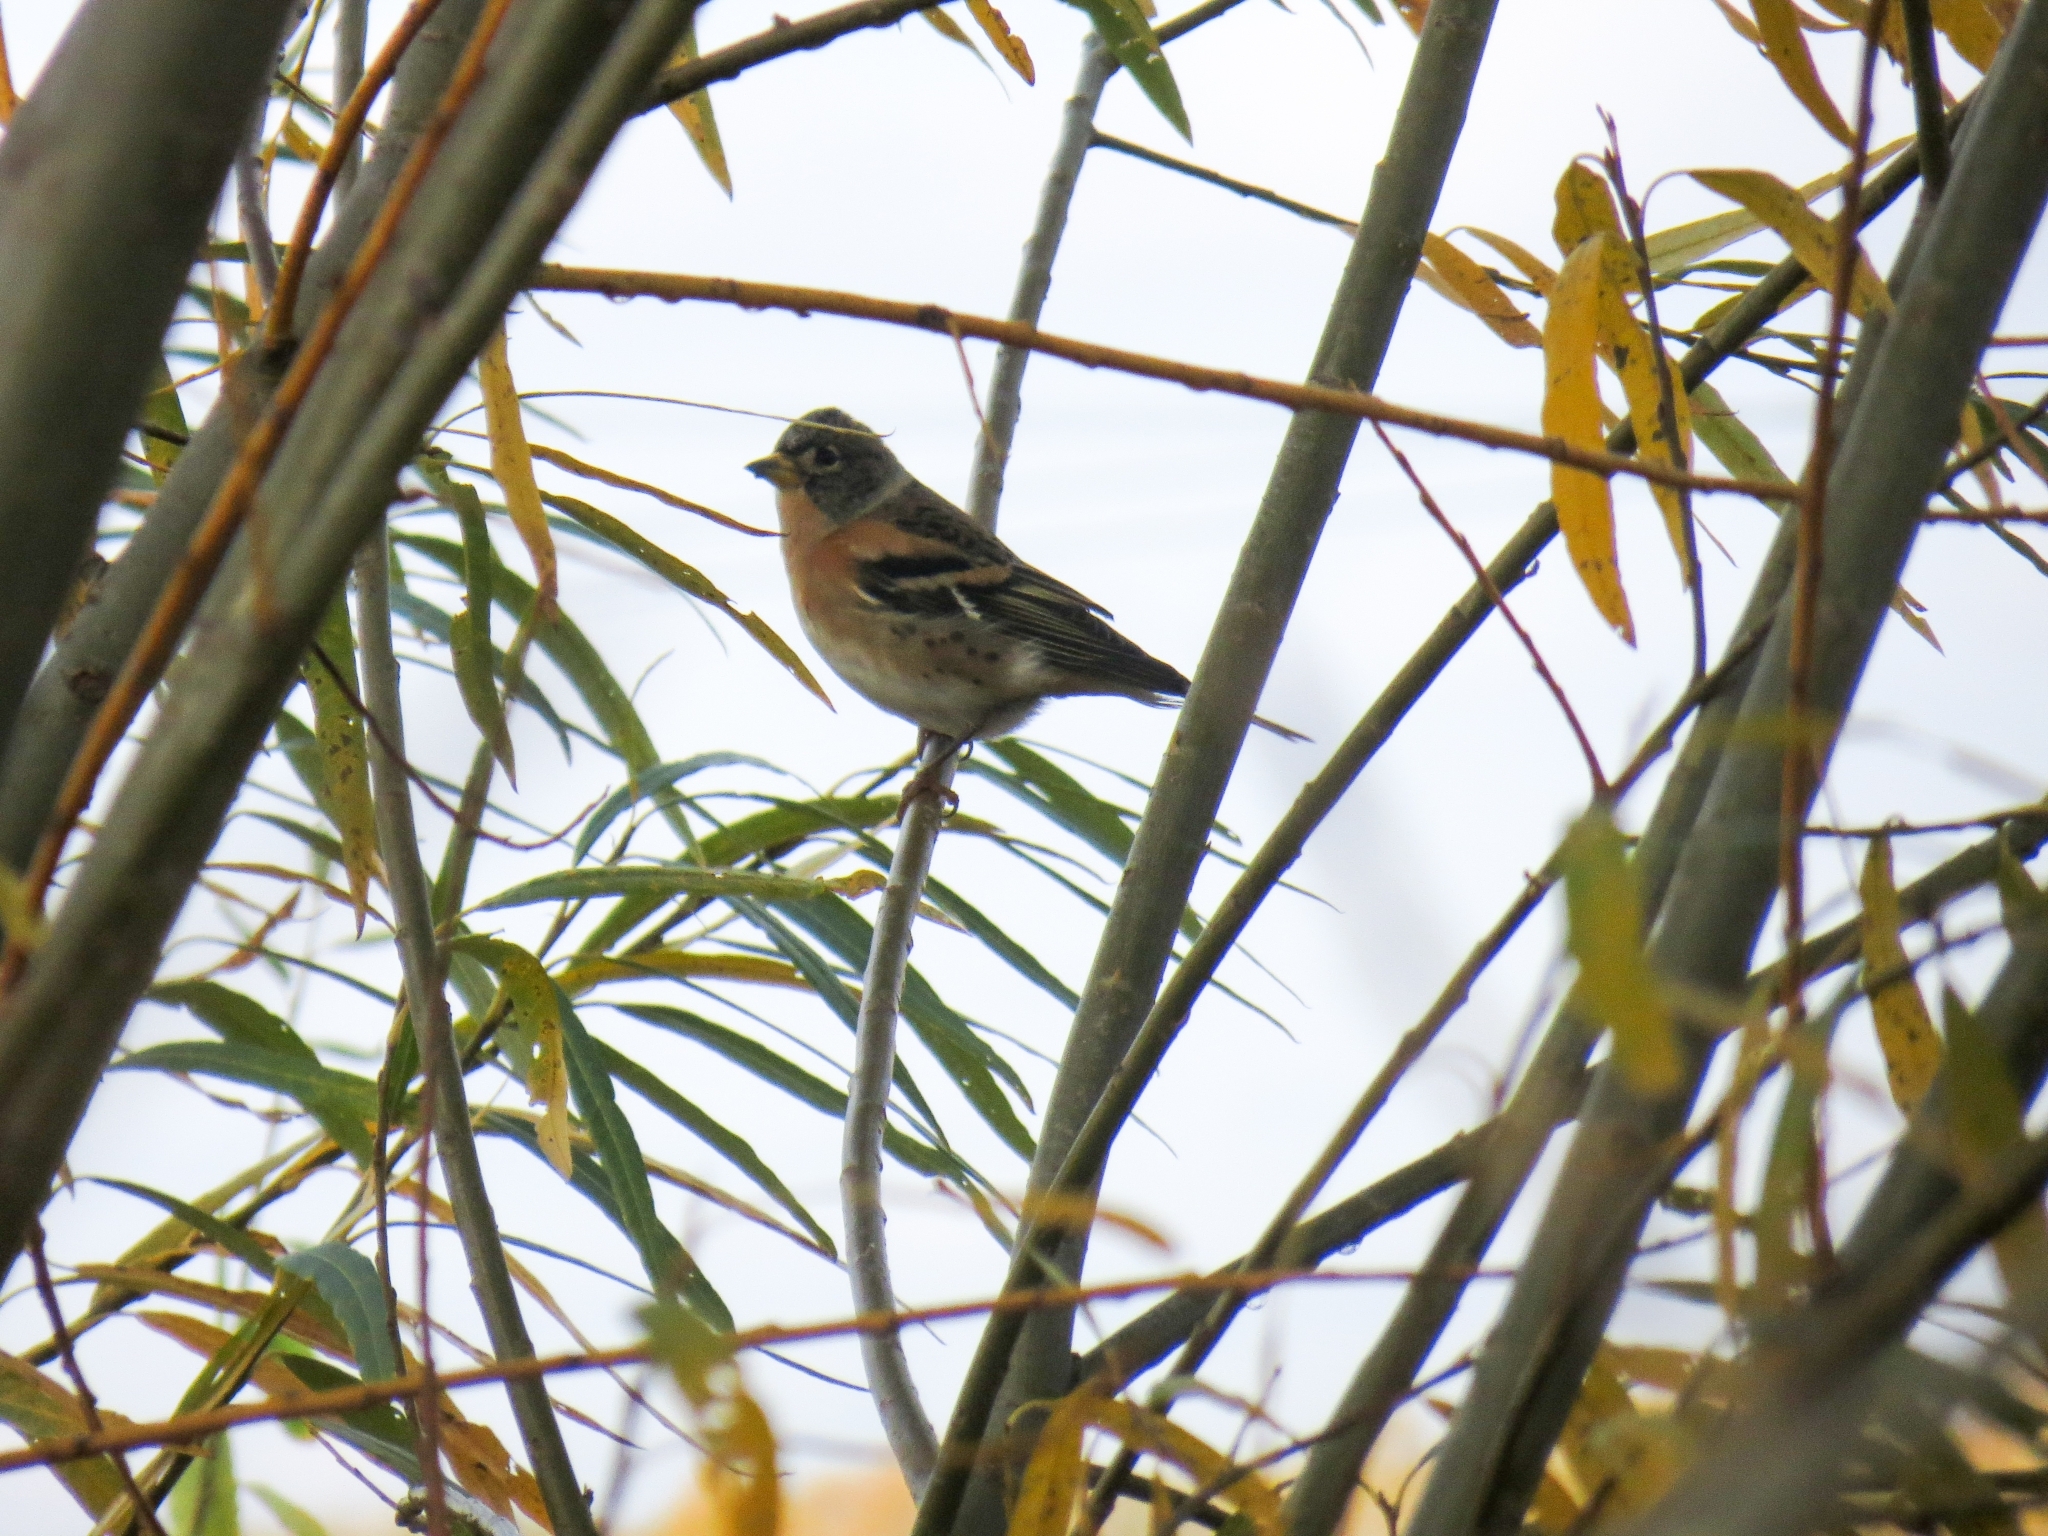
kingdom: Animalia
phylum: Chordata
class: Aves
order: Passeriformes
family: Fringillidae
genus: Fringilla
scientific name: Fringilla montifringilla
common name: Brambling
